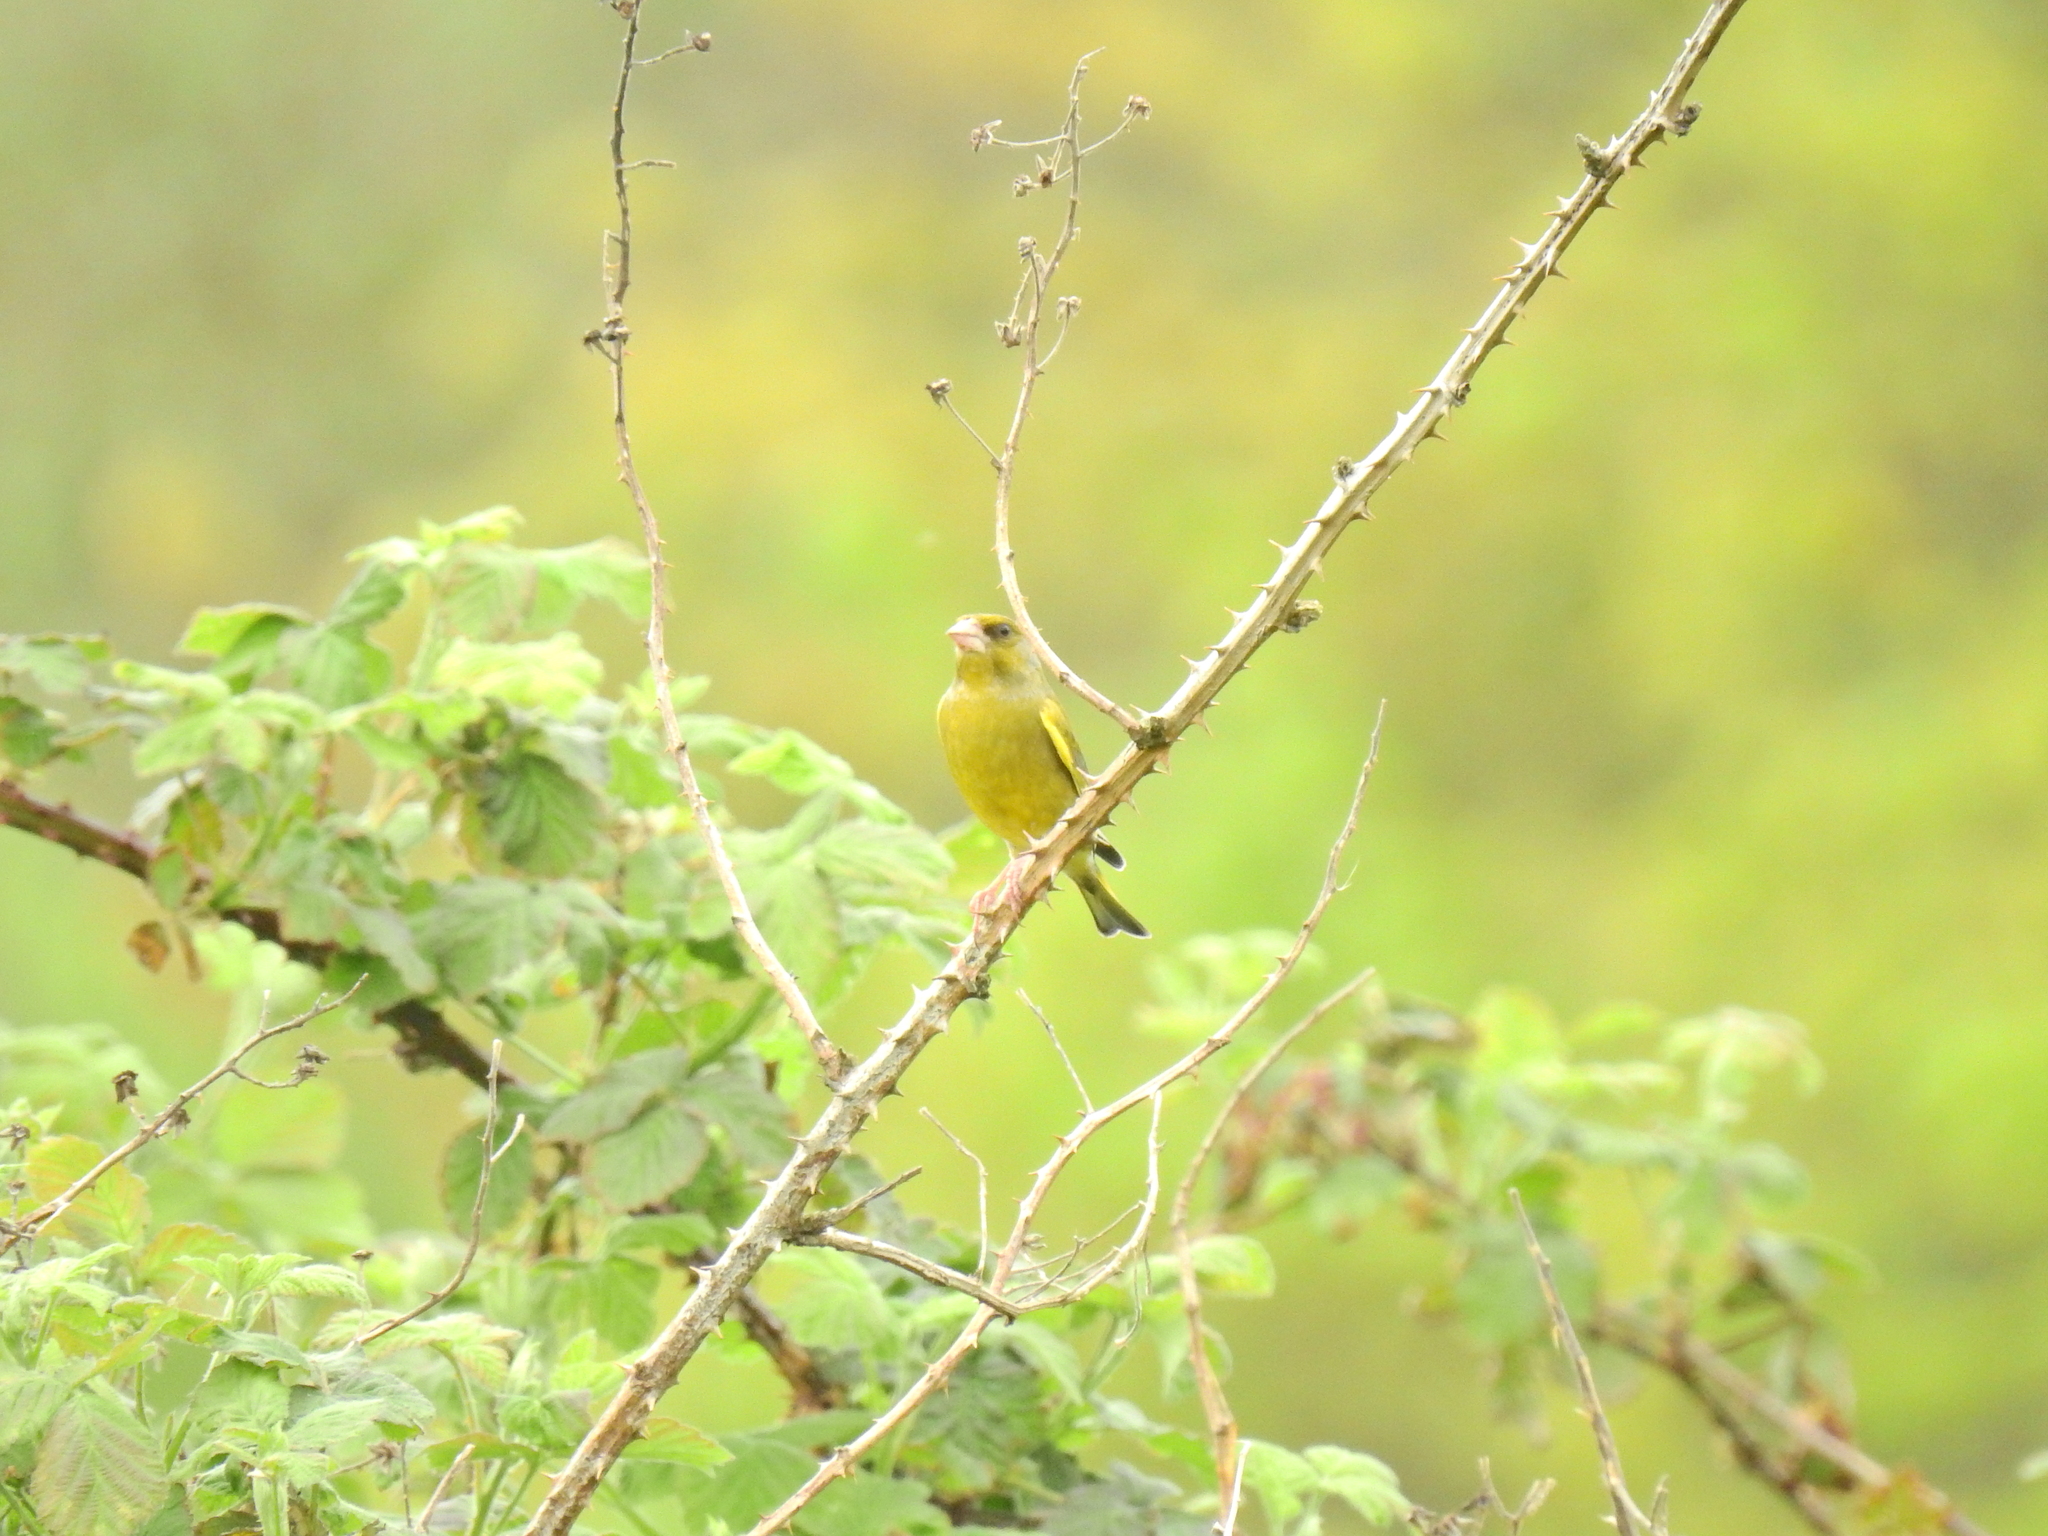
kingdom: Plantae
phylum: Tracheophyta
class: Liliopsida
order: Poales
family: Poaceae
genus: Chloris
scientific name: Chloris chloris
